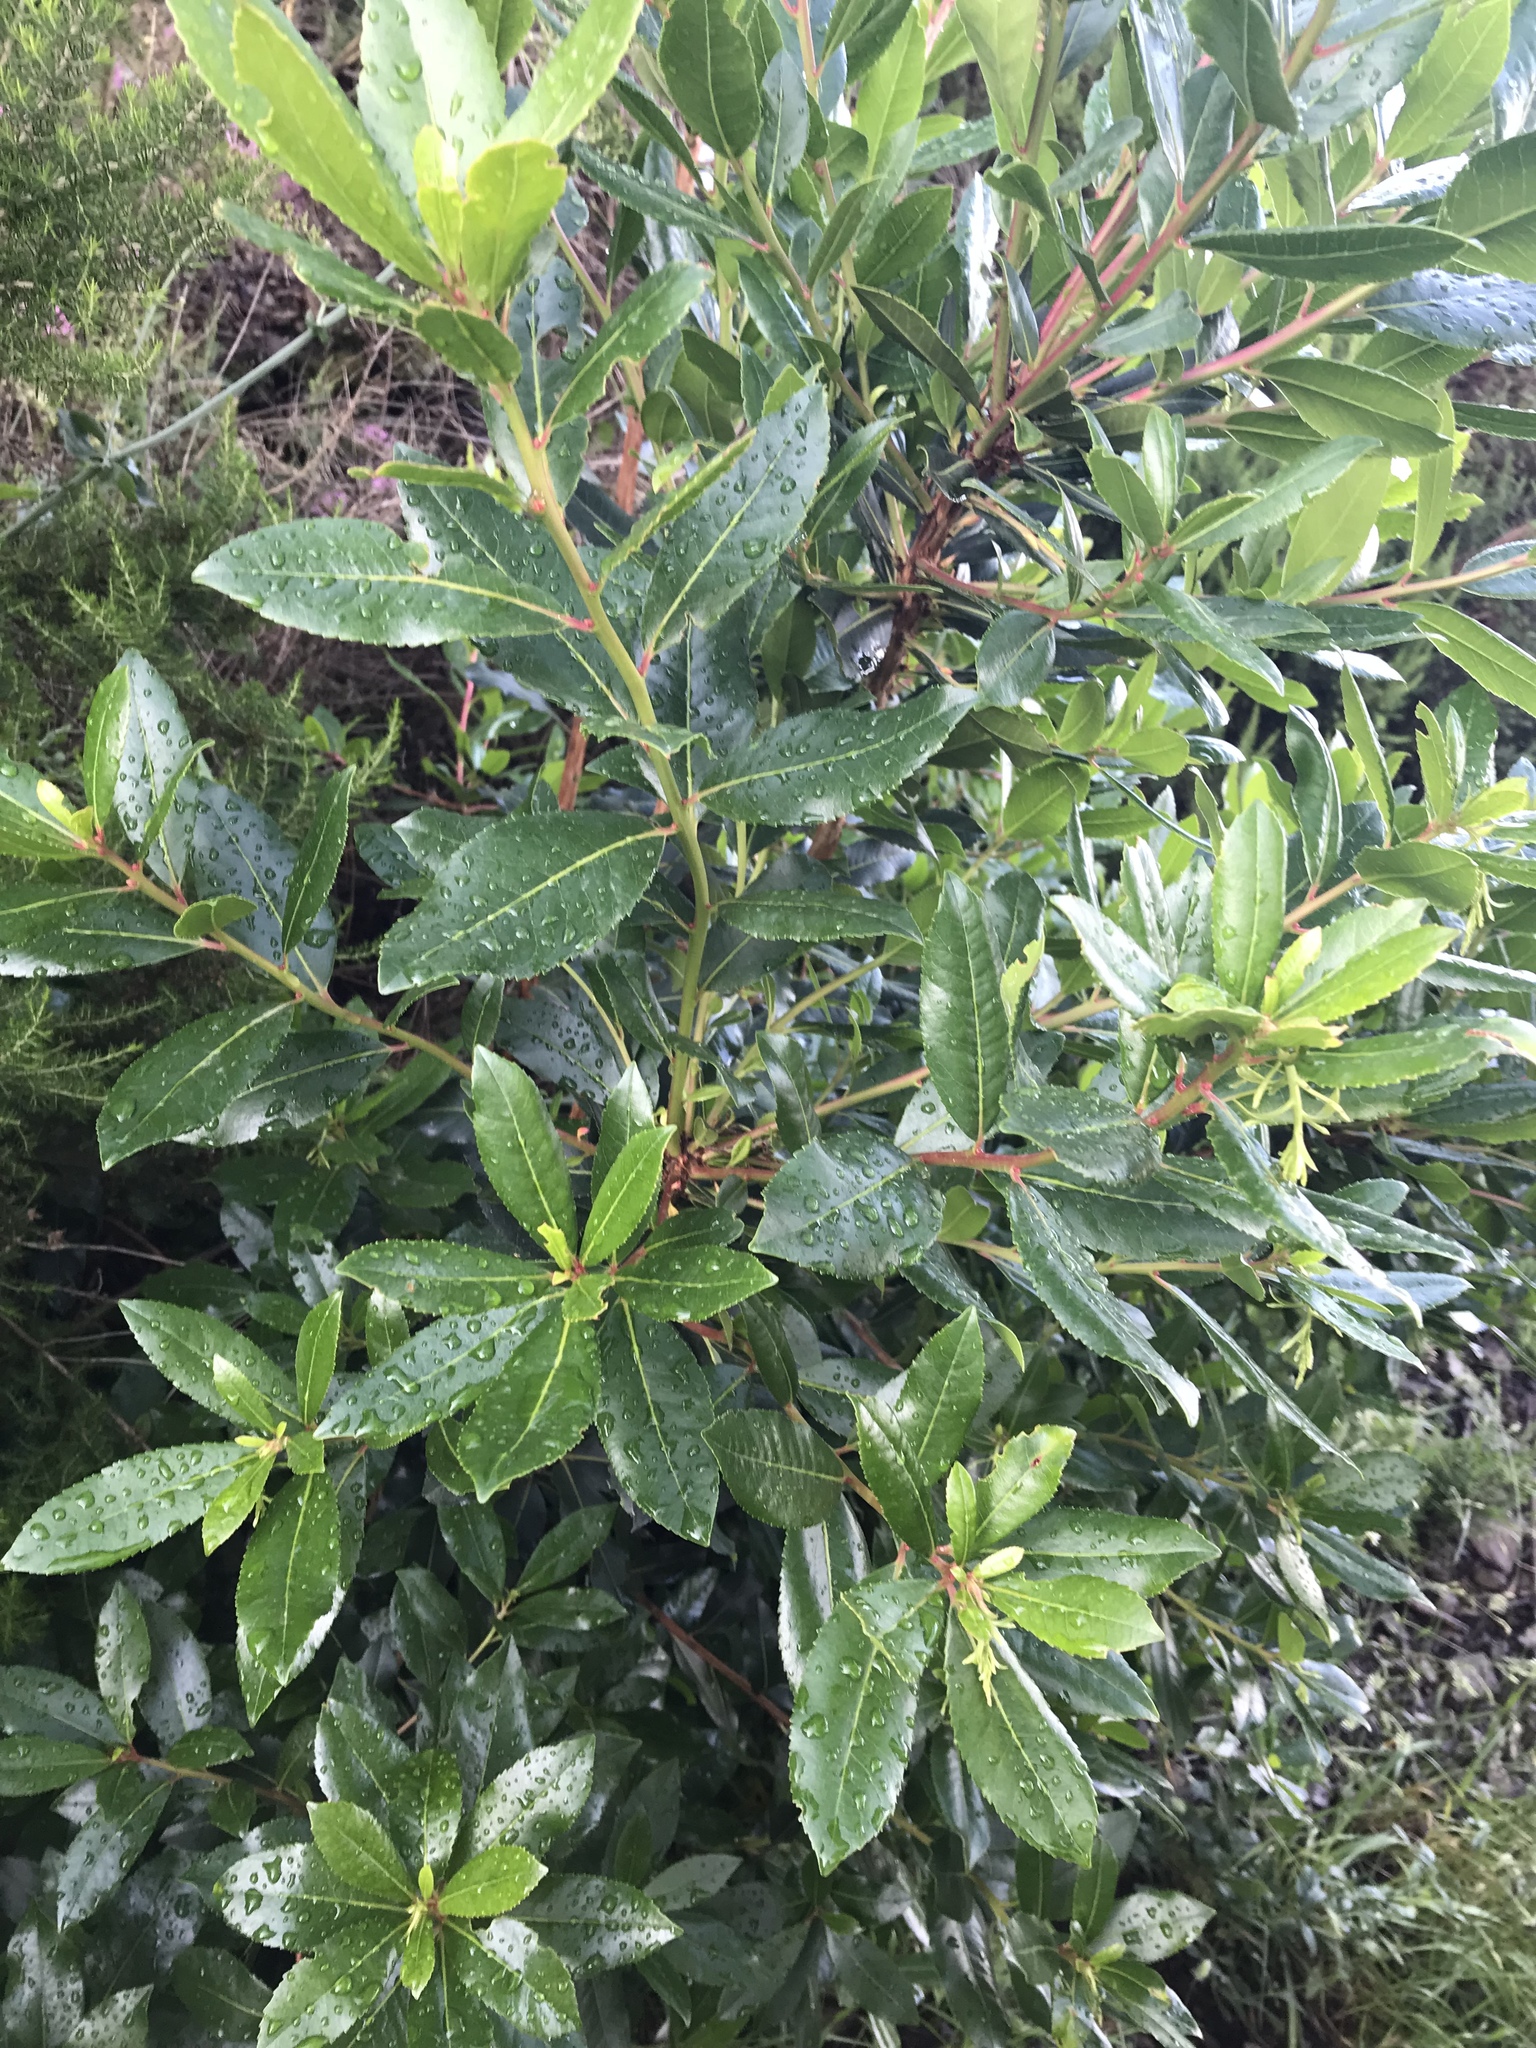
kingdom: Plantae
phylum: Tracheophyta
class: Magnoliopsida
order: Ericales
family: Ericaceae
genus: Arbutus
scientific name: Arbutus unedo
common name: Strawberry-tree
